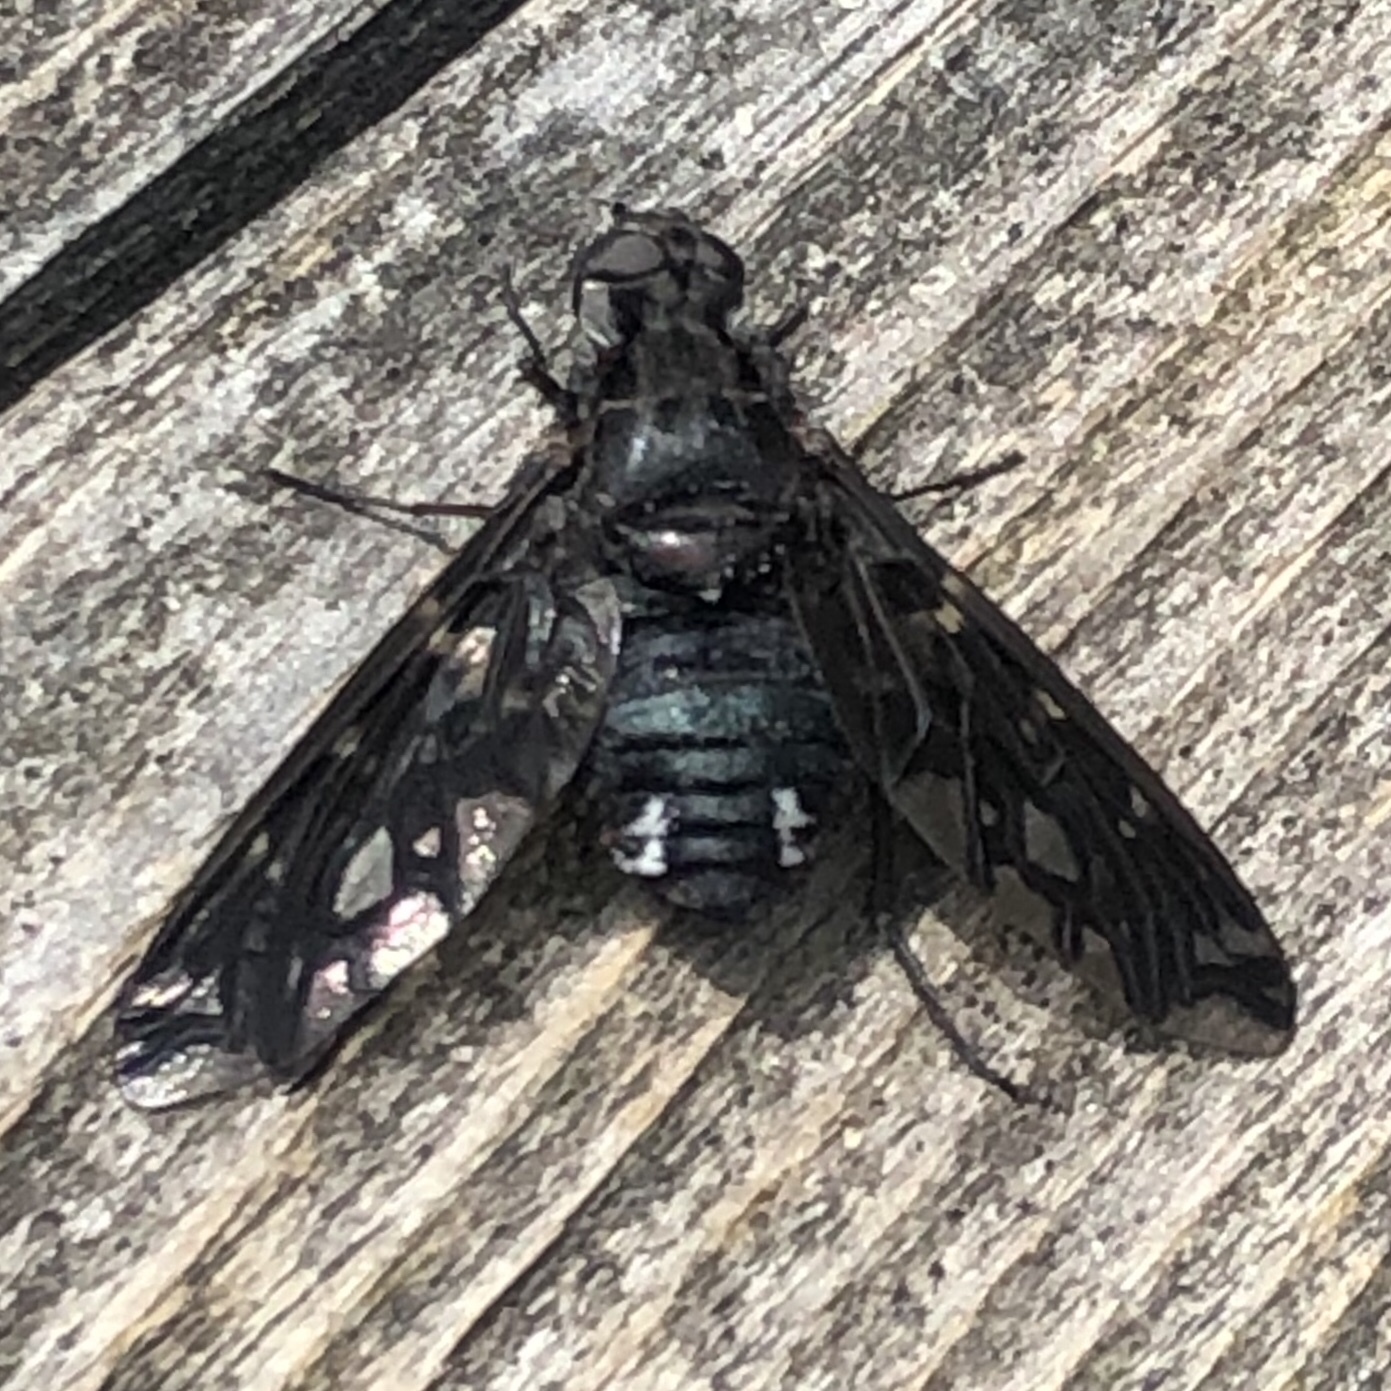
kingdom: Animalia
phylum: Arthropoda
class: Insecta
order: Diptera
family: Bombyliidae
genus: Xenox
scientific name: Xenox tigrinus
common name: Tiger bee fly
